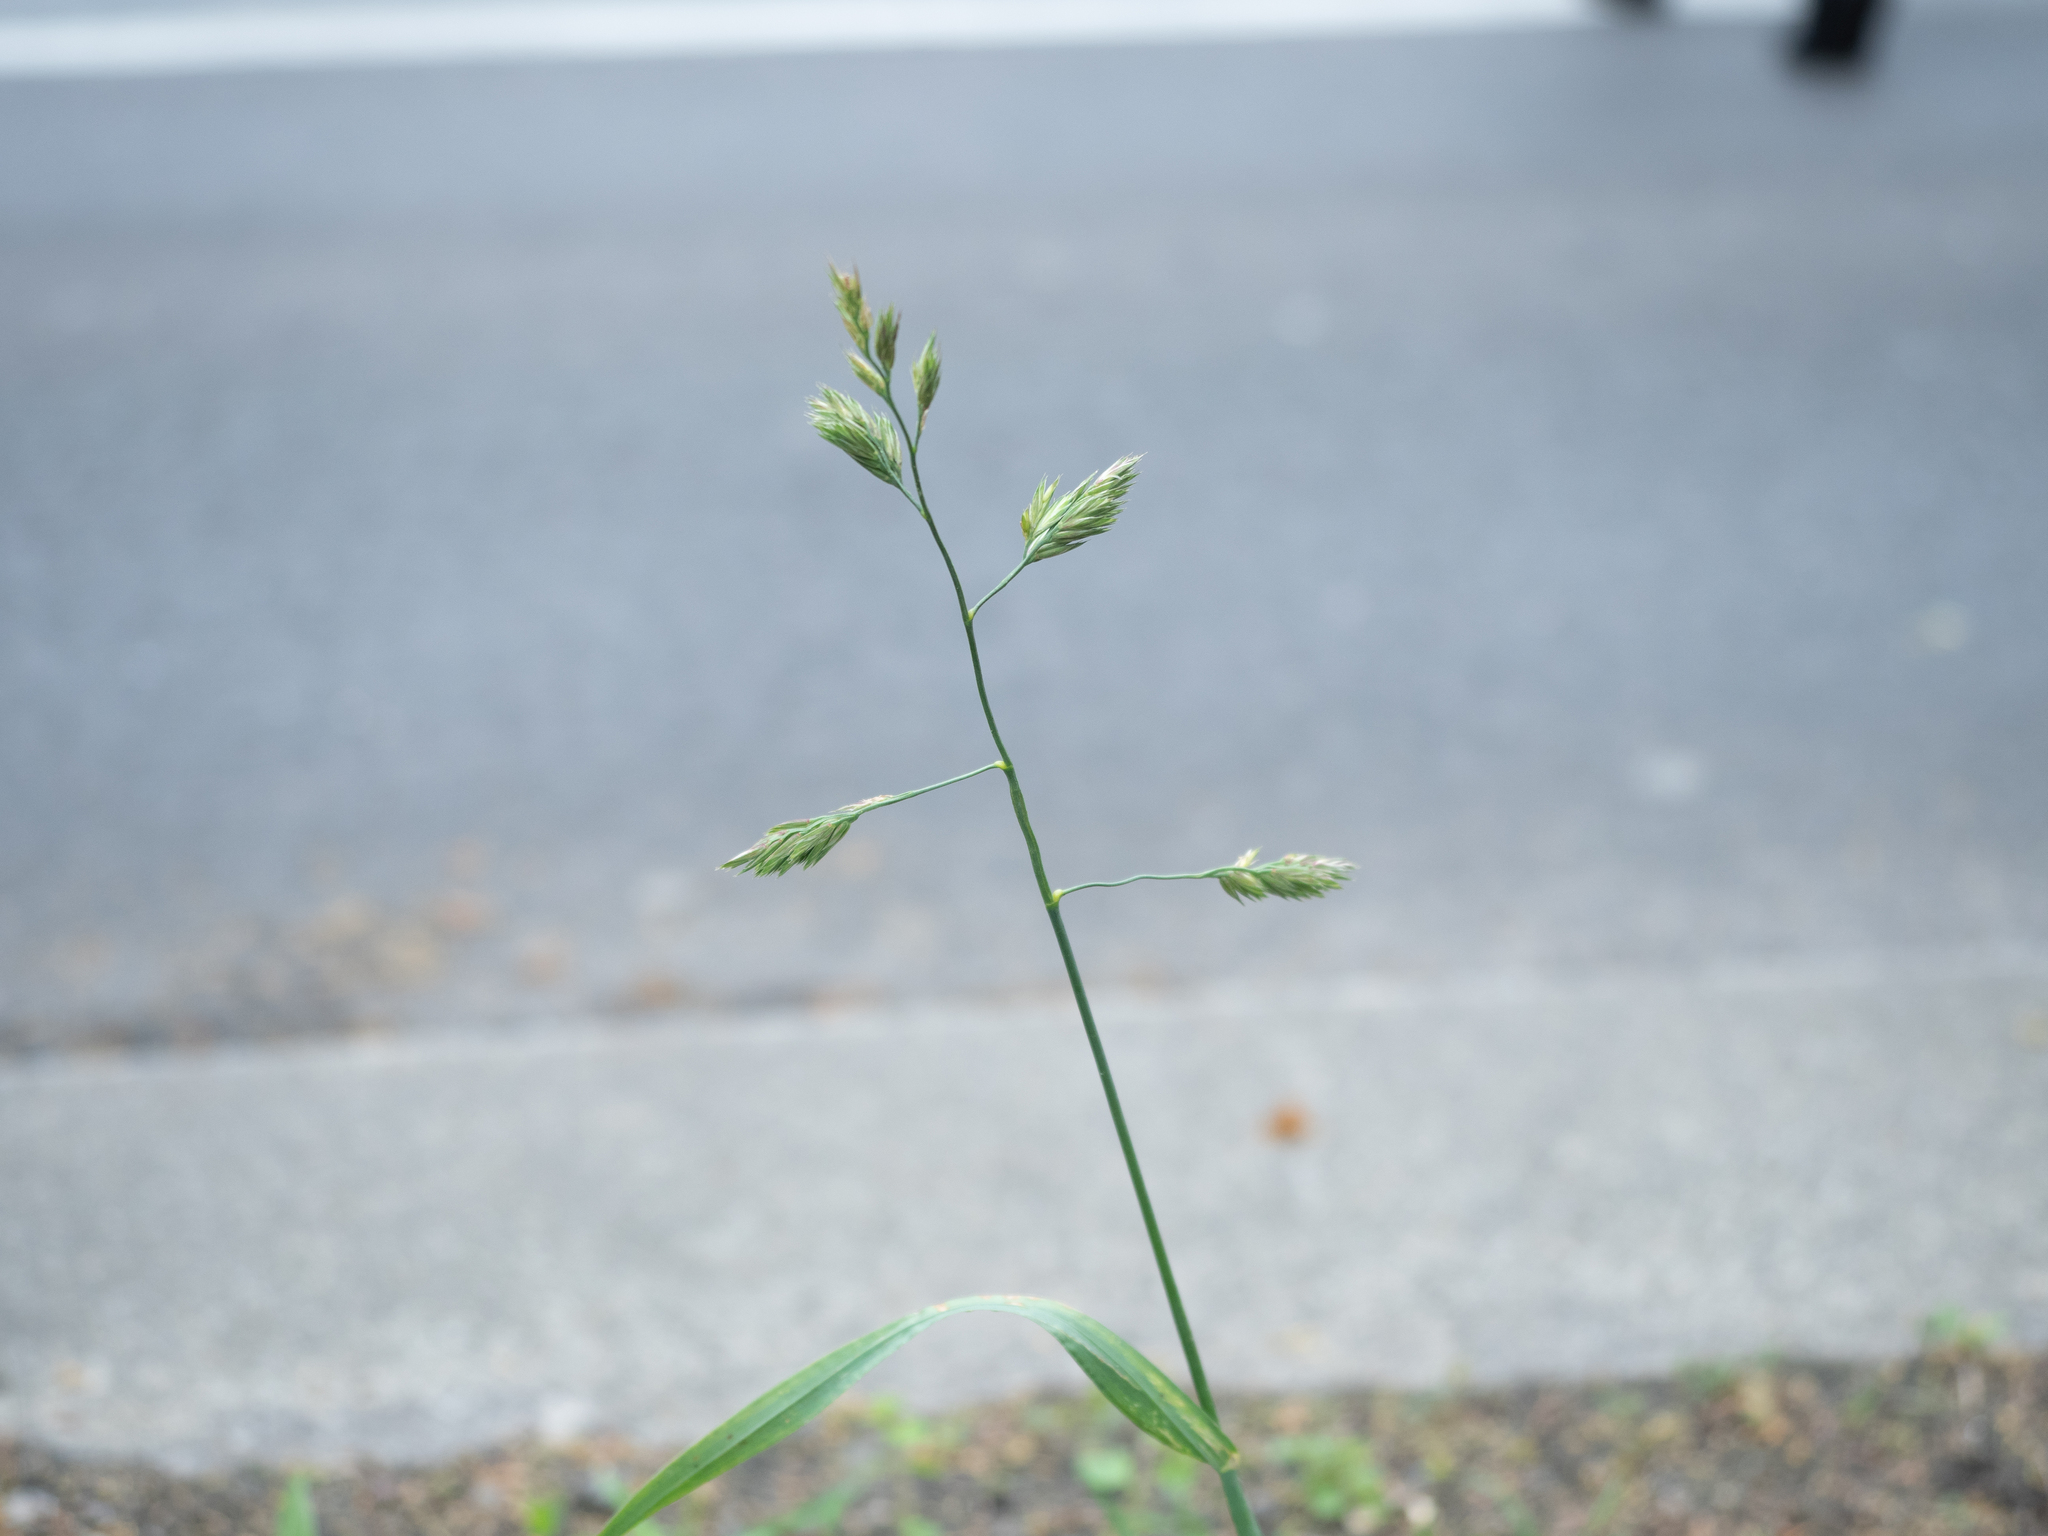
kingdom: Plantae
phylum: Tracheophyta
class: Liliopsida
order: Poales
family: Poaceae
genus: Dactylis
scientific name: Dactylis glomerata
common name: Orchardgrass
